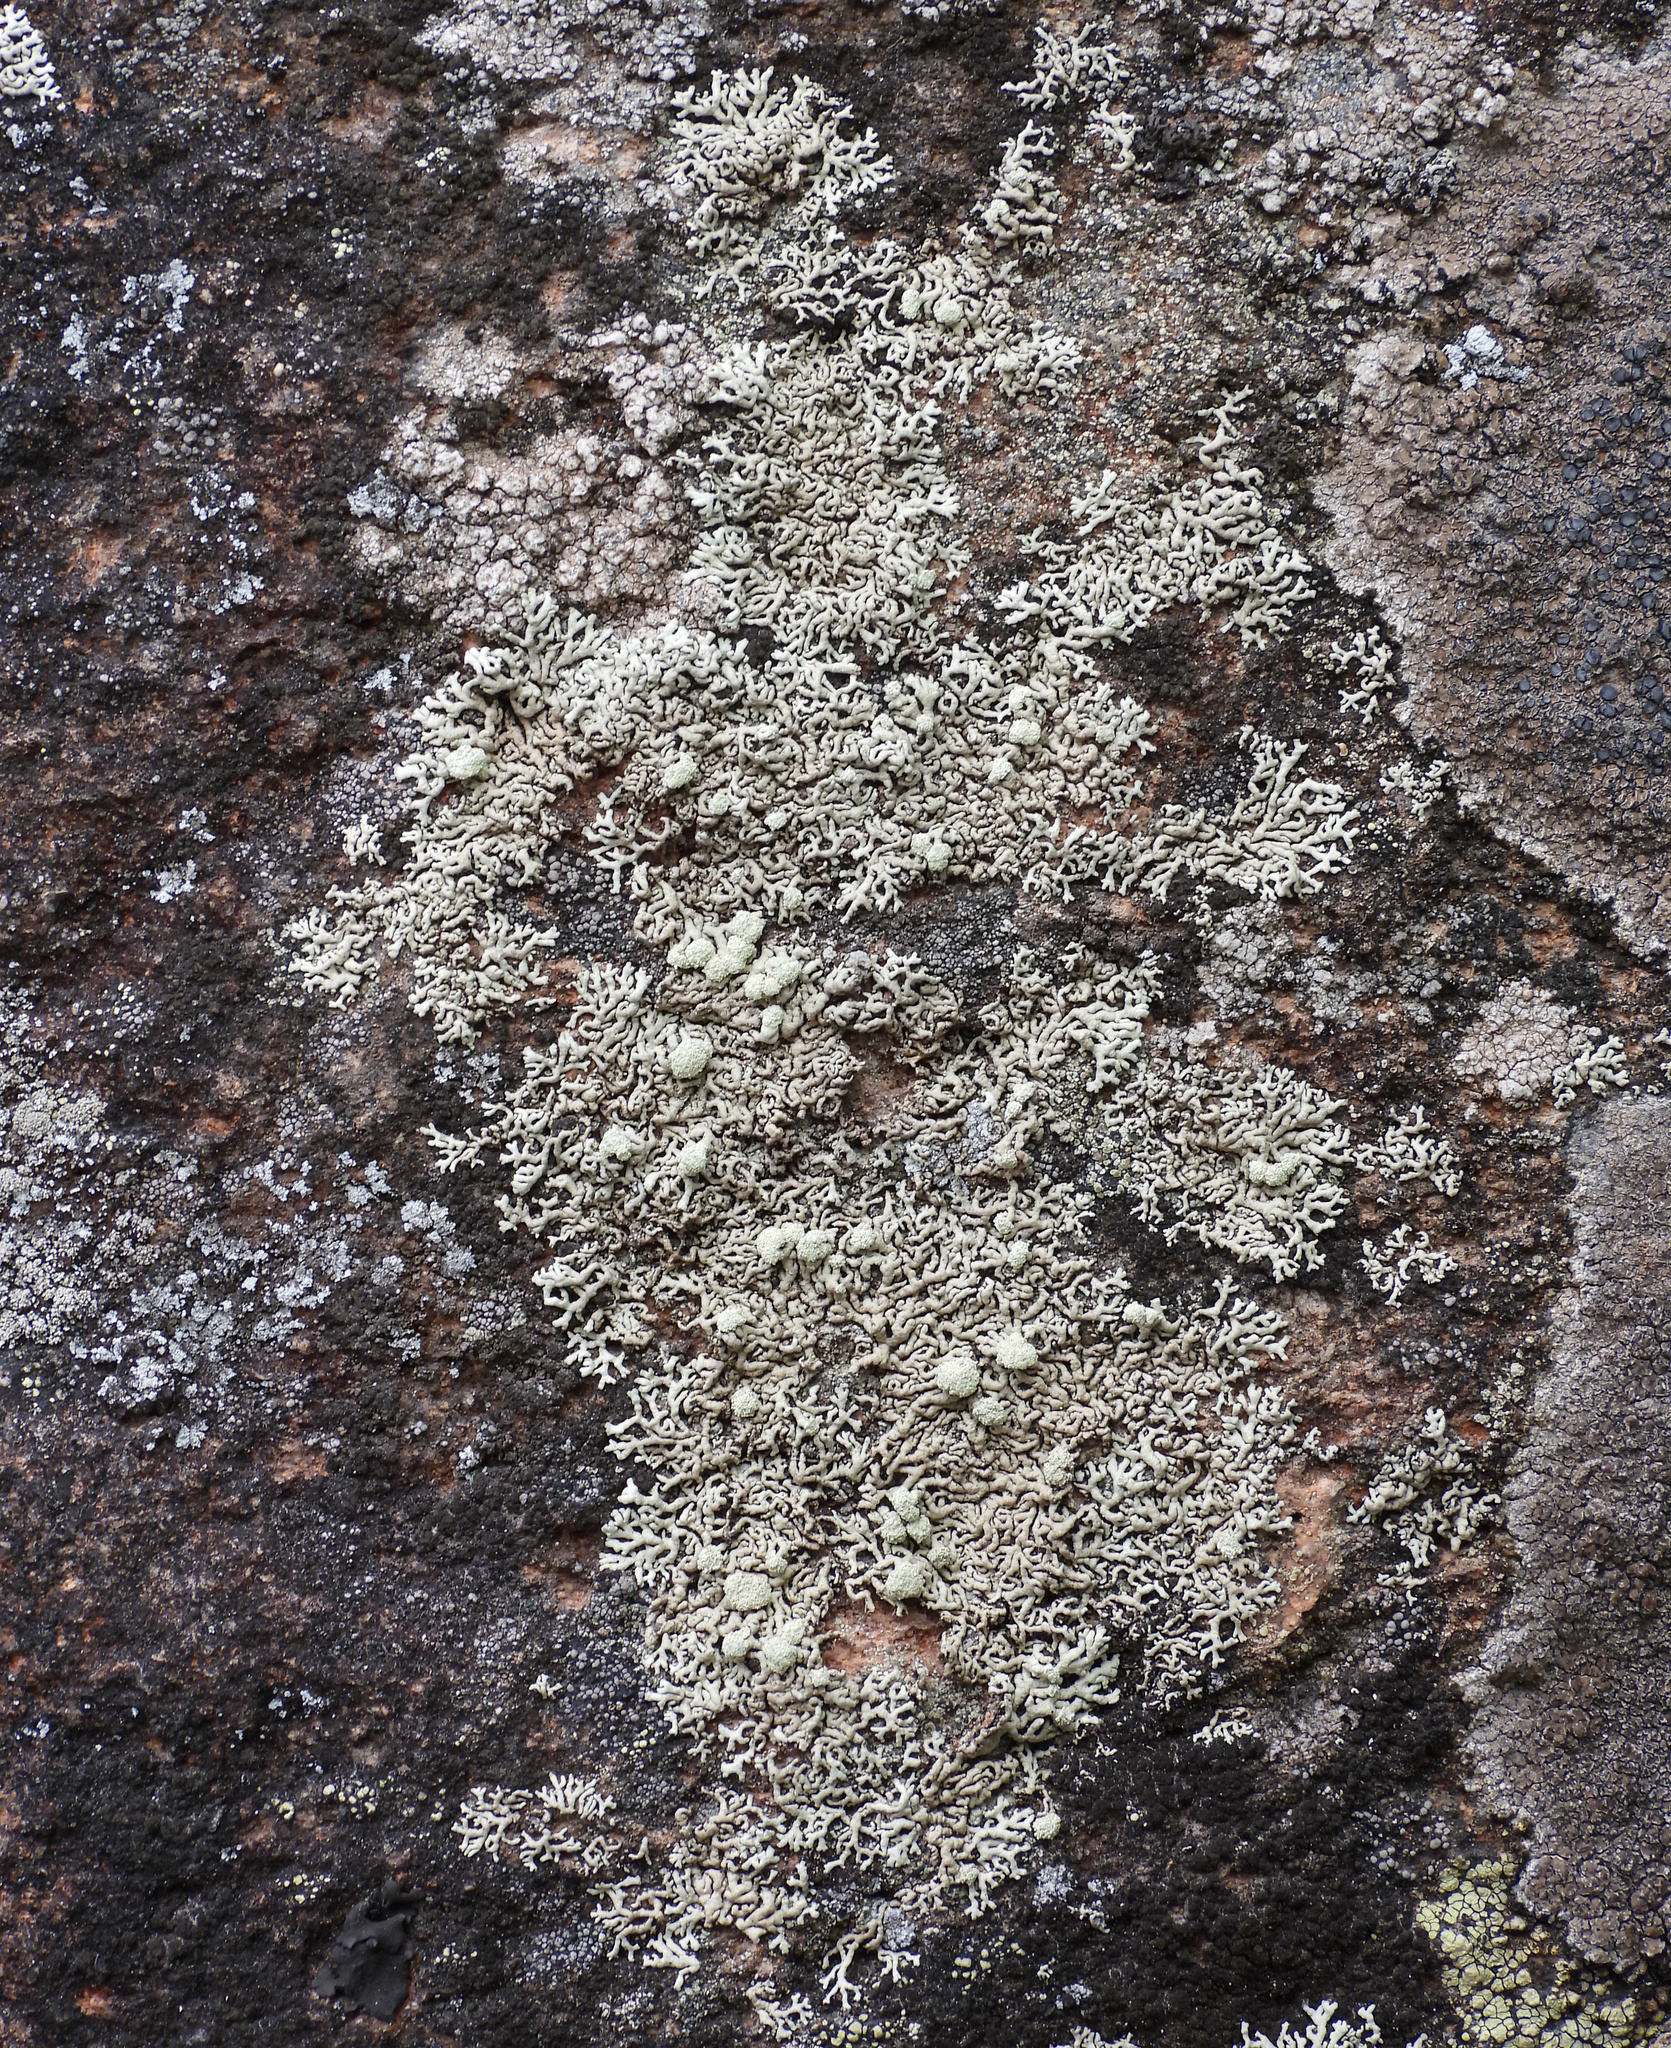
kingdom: Fungi
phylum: Ascomycota
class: Lecanoromycetes
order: Lecanorales
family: Parmeliaceae
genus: Arctoparmelia
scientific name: Arctoparmelia incurva
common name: Bent ring lichen
